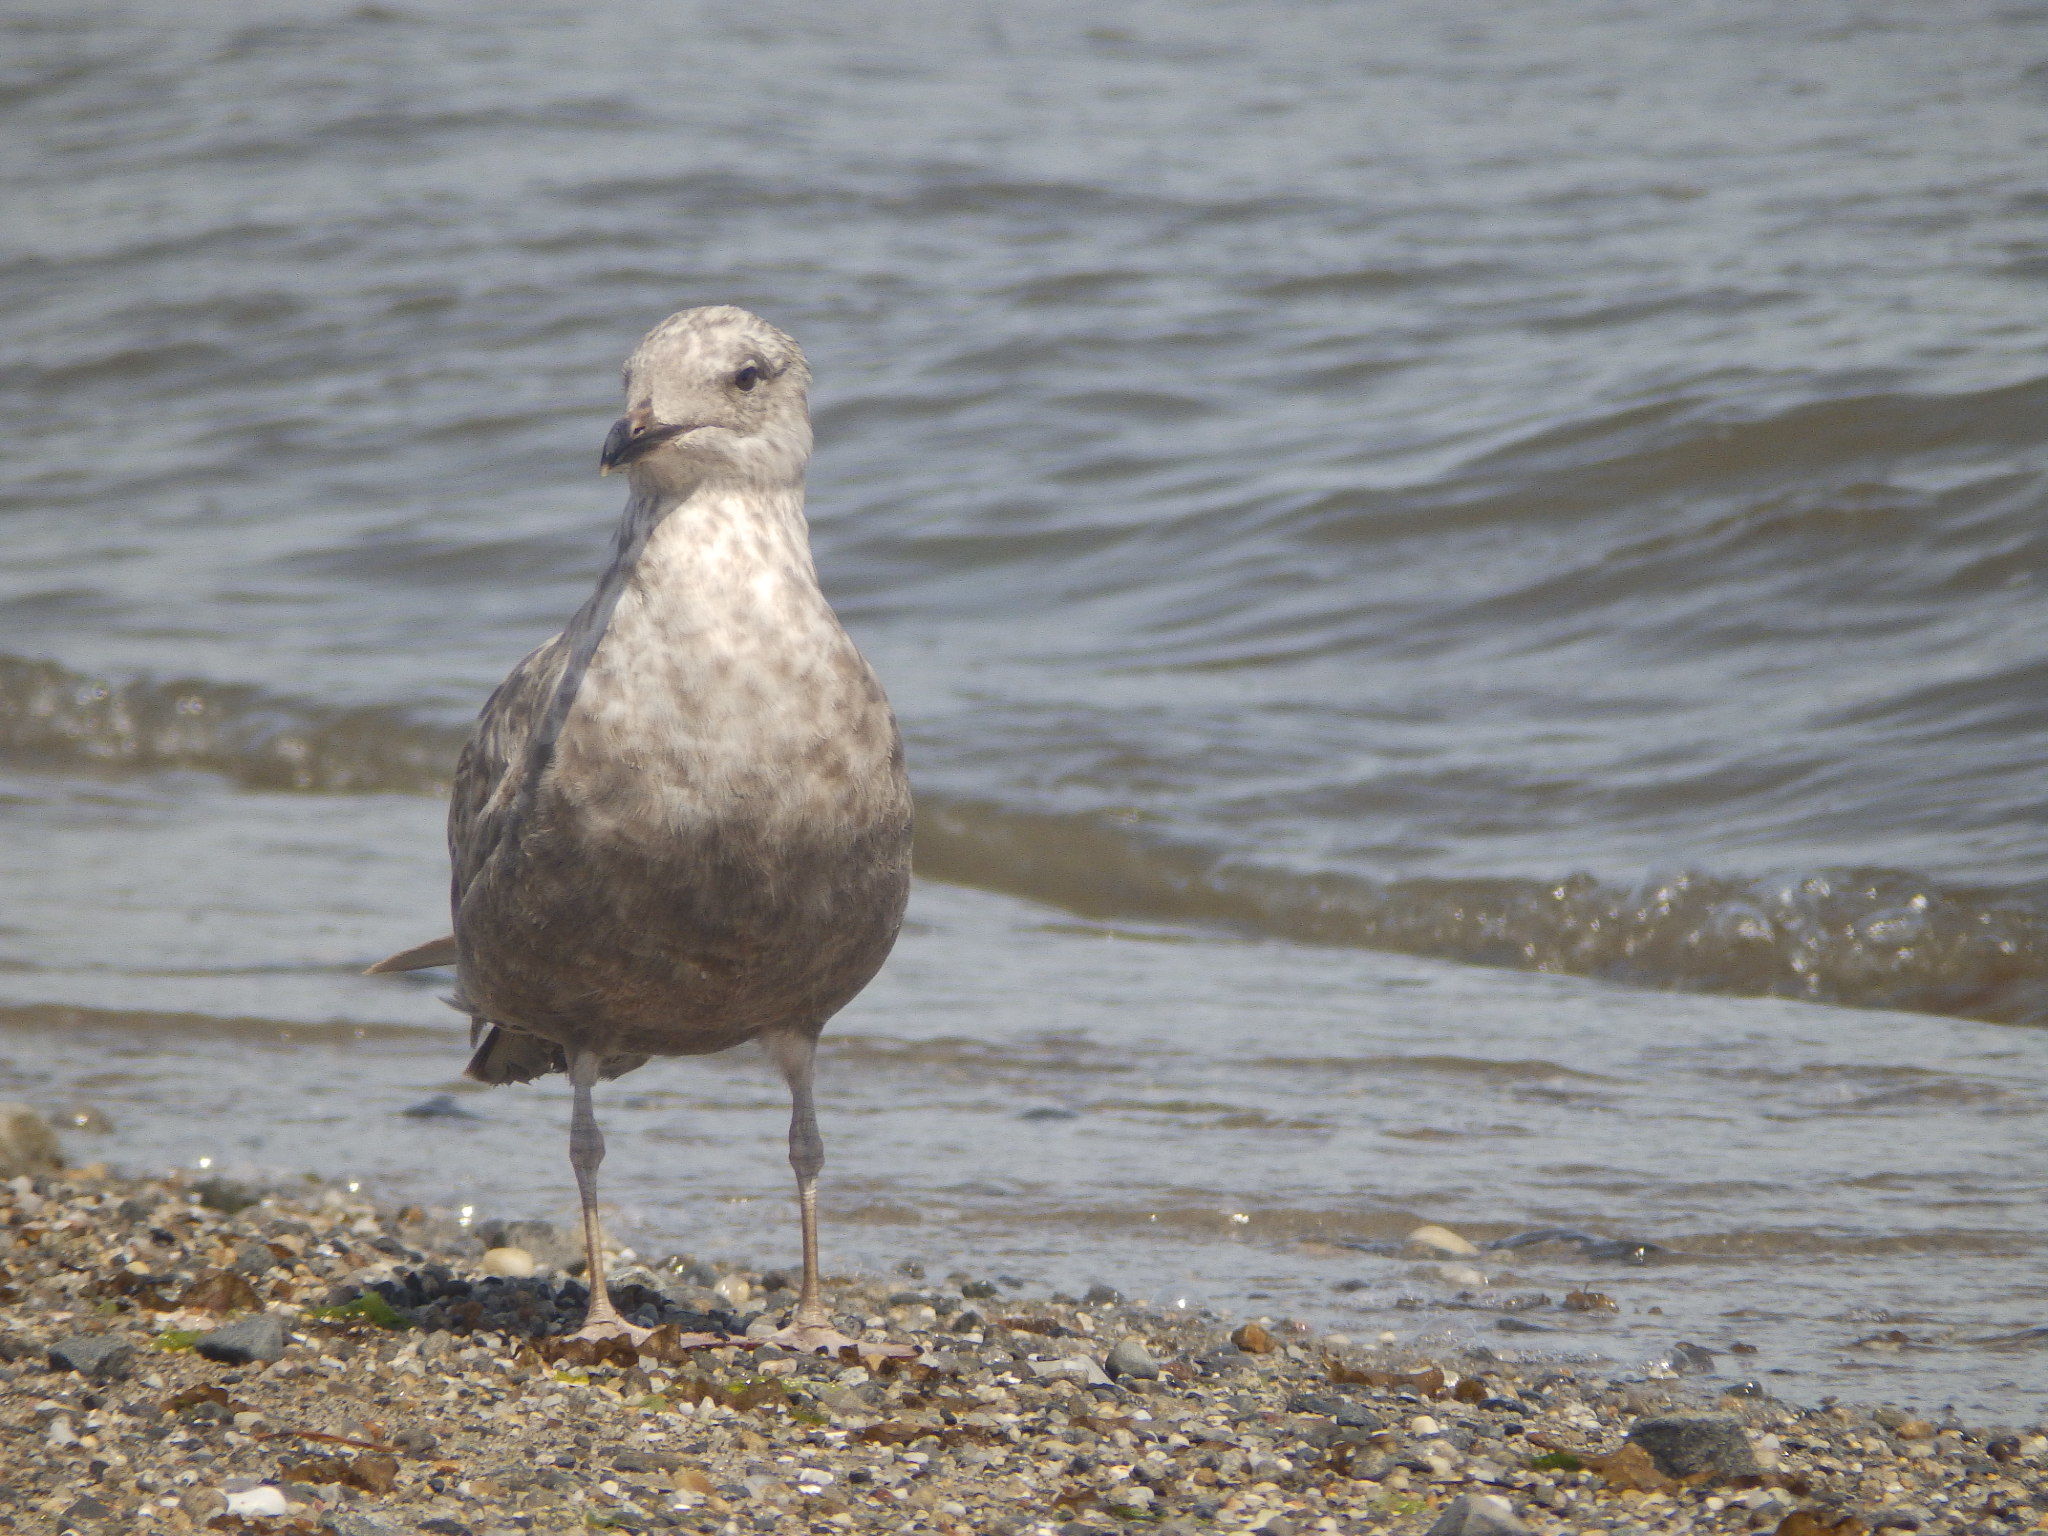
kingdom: Animalia
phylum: Chordata
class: Aves
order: Charadriiformes
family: Laridae
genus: Larus
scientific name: Larus argentatus
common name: Herring gull
